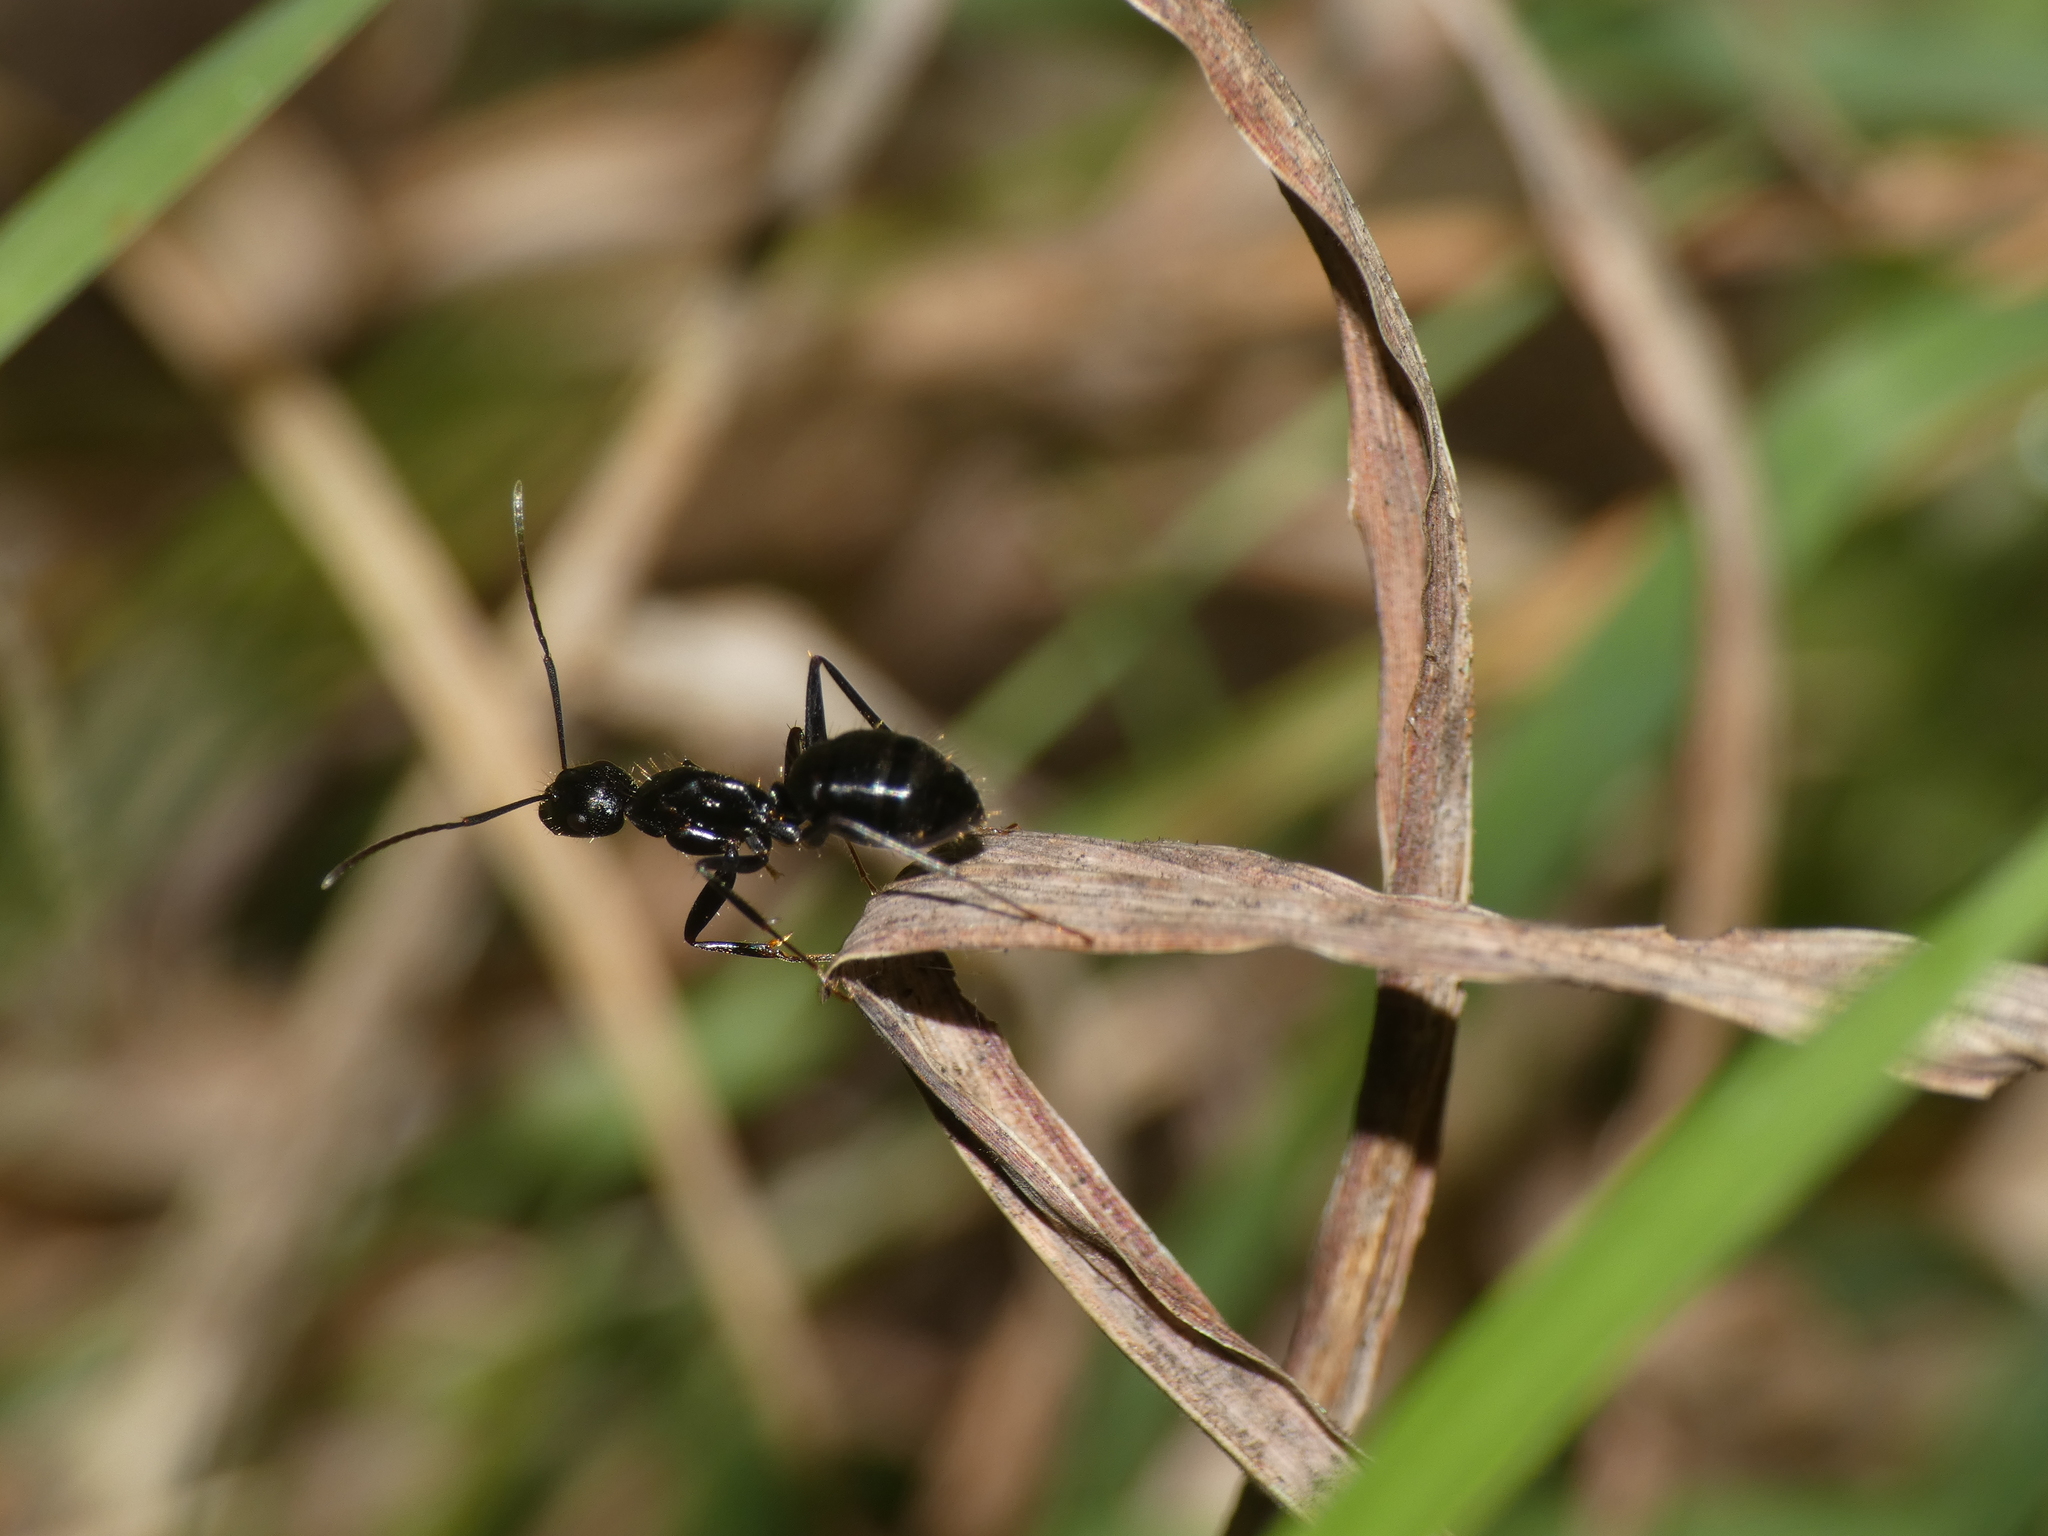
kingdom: Animalia
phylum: Arthropoda
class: Insecta
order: Hymenoptera
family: Formicidae
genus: Camponotus
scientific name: Camponotus aethiops
